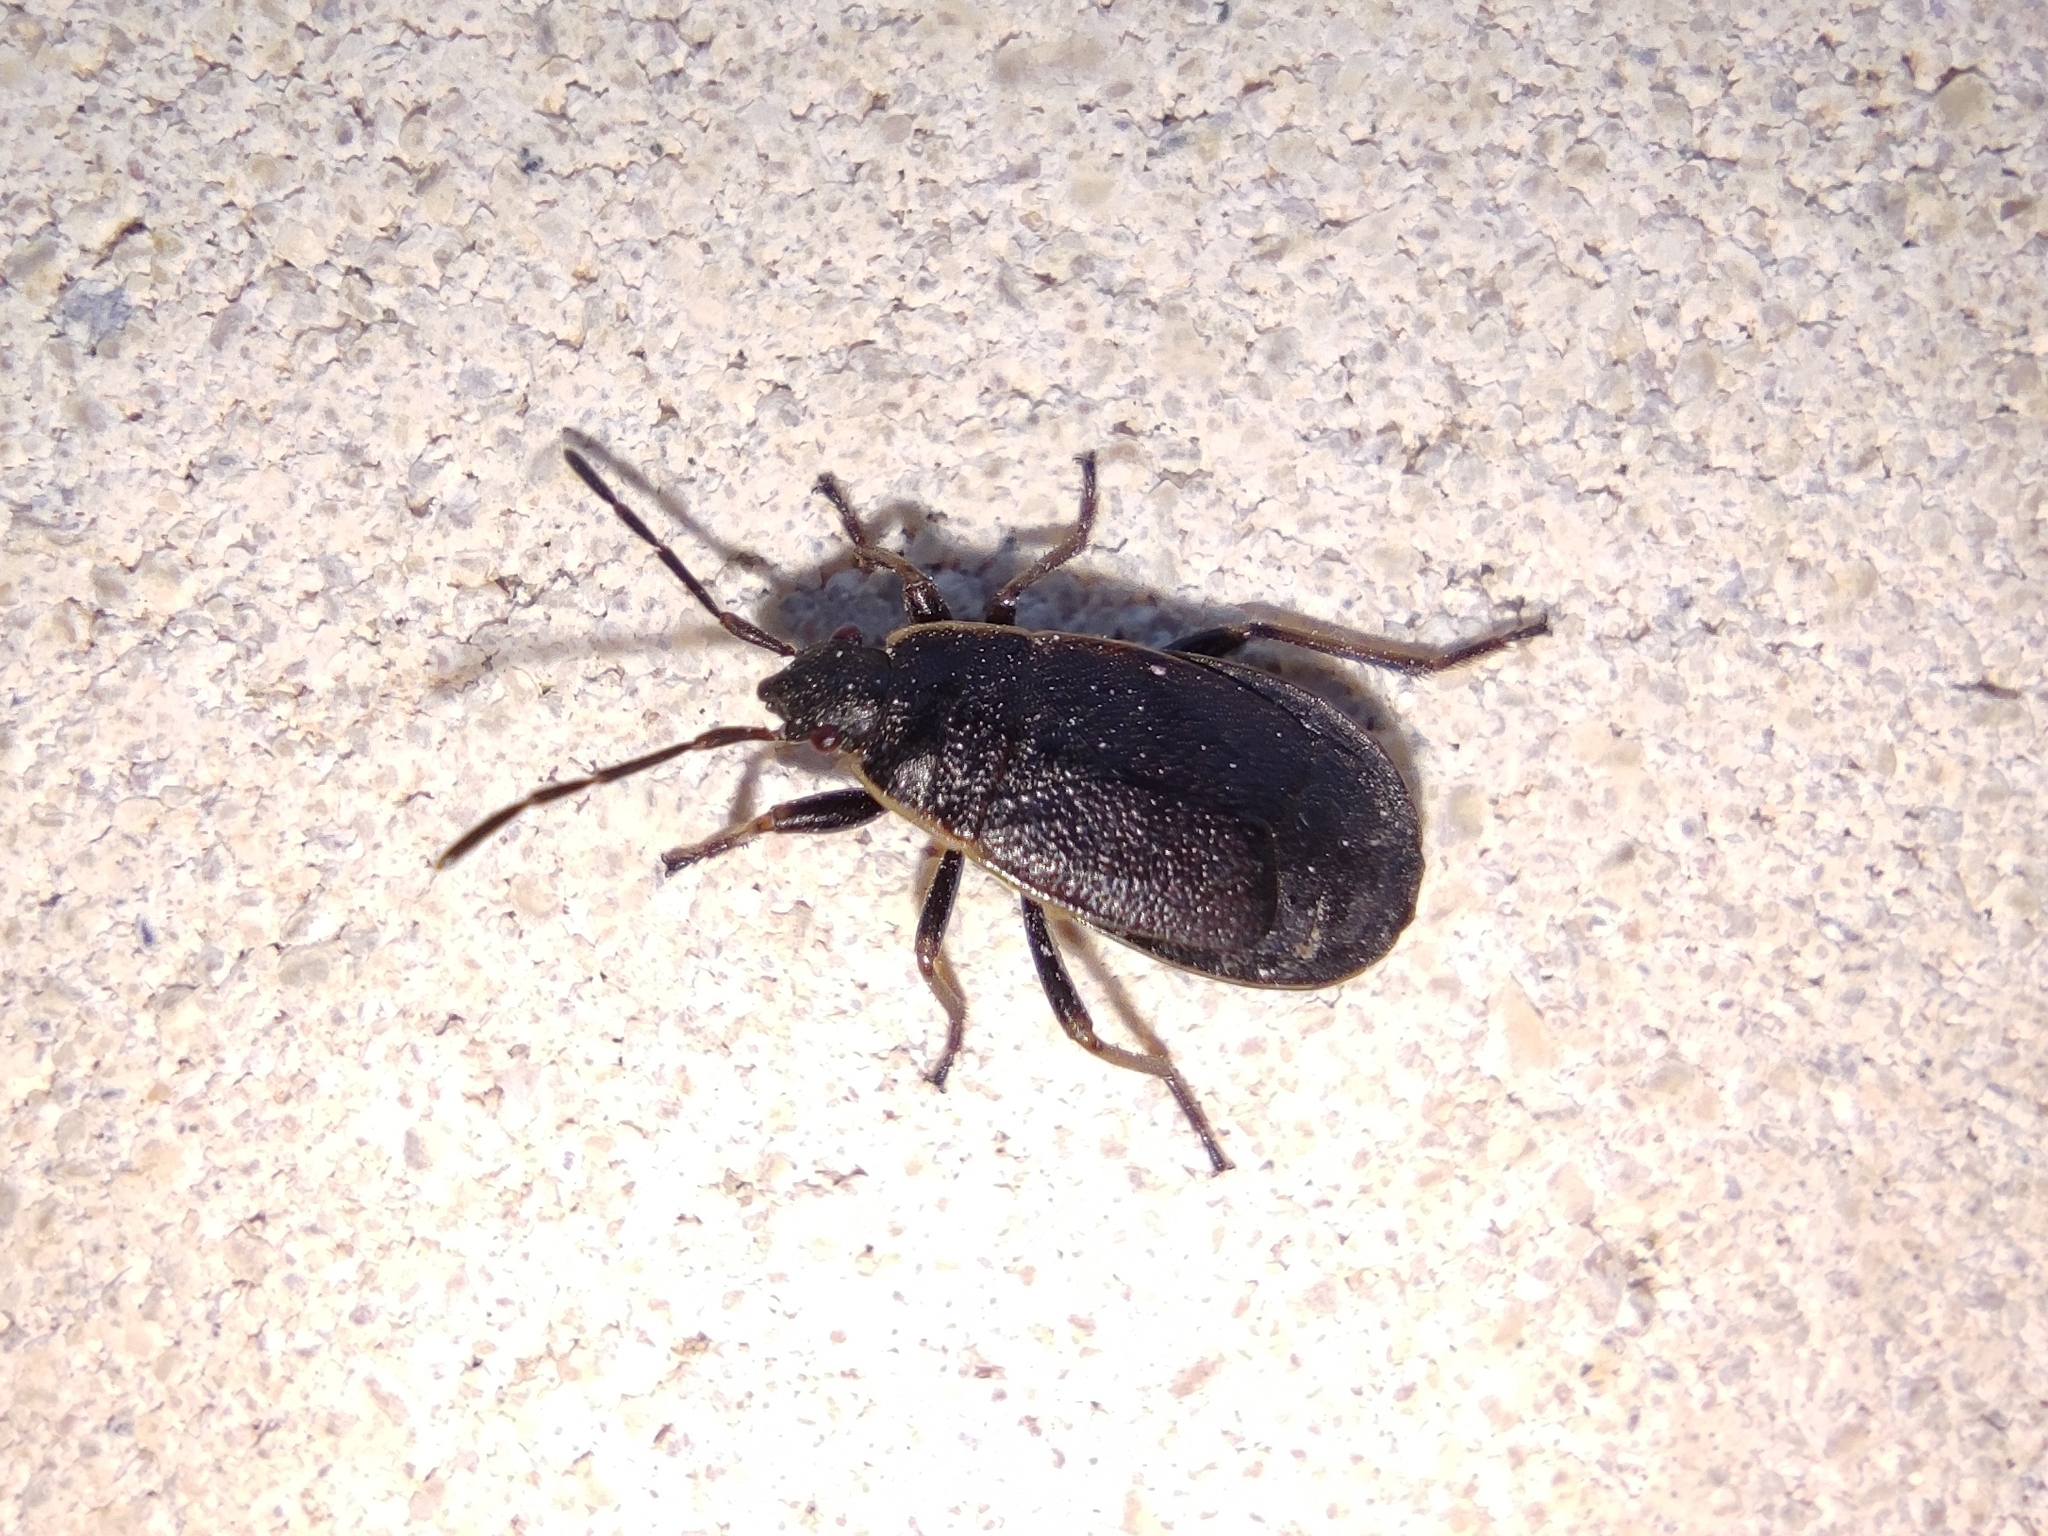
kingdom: Animalia
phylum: Arthropoda
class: Insecta
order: Hemiptera
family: Pyrrhocoridae
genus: Pyrrhocoris
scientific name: Pyrrhocoris marginatus
